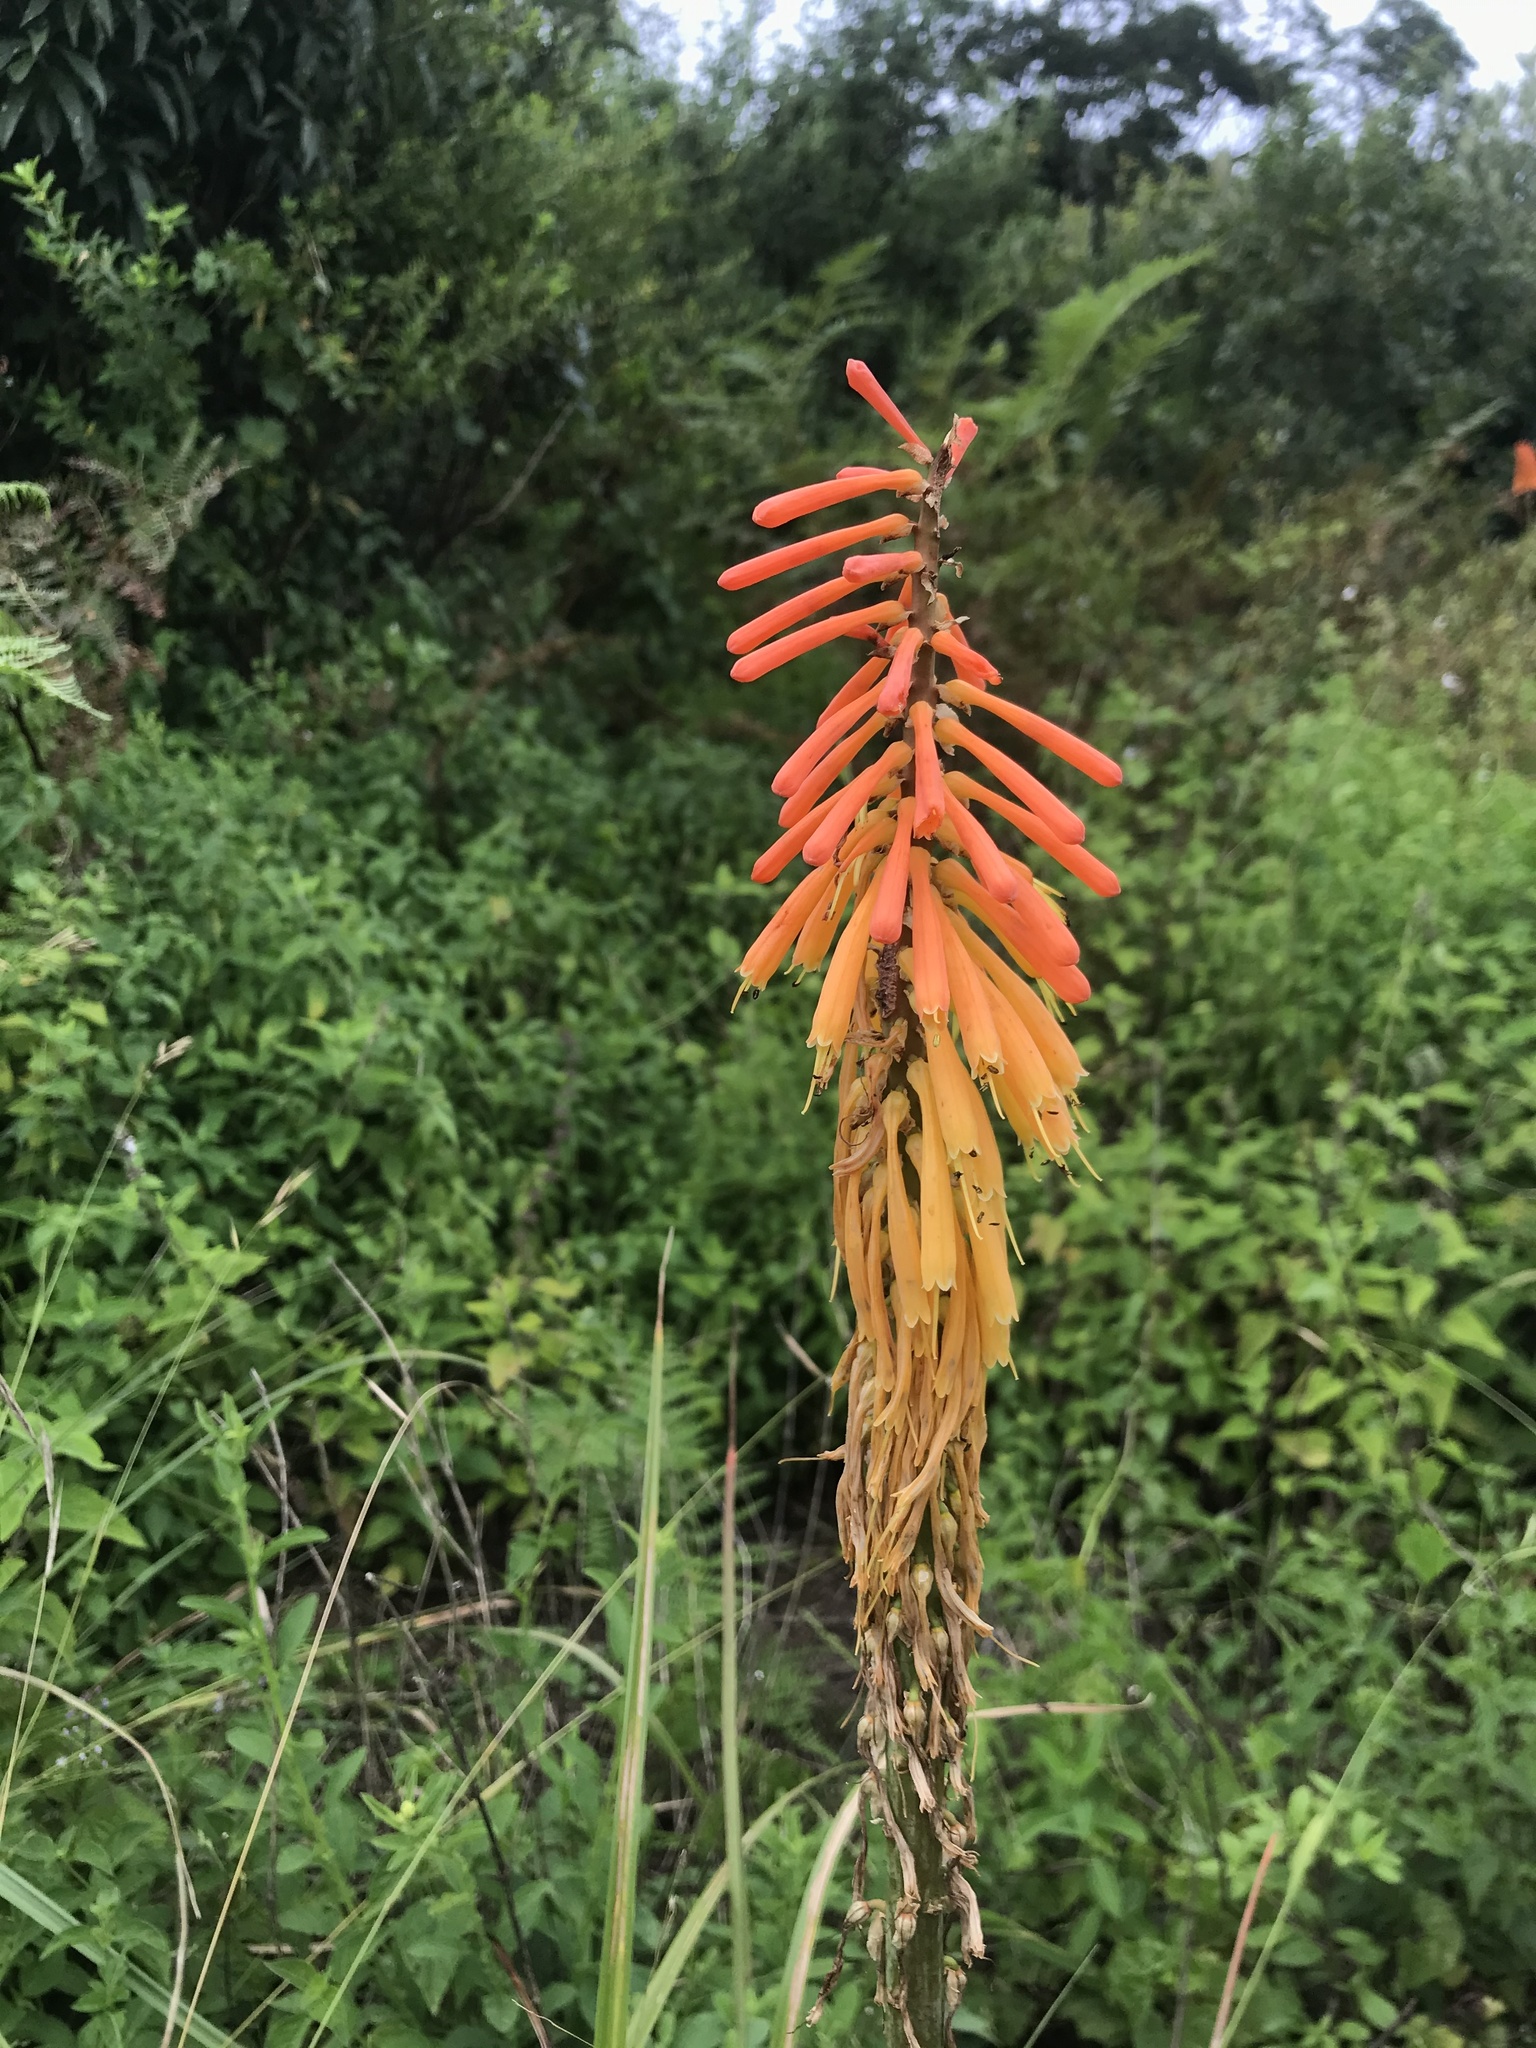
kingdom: Plantae
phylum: Tracheophyta
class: Liliopsida
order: Asparagales
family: Asphodelaceae
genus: Kniphofia
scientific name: Kniphofia laxiflora
